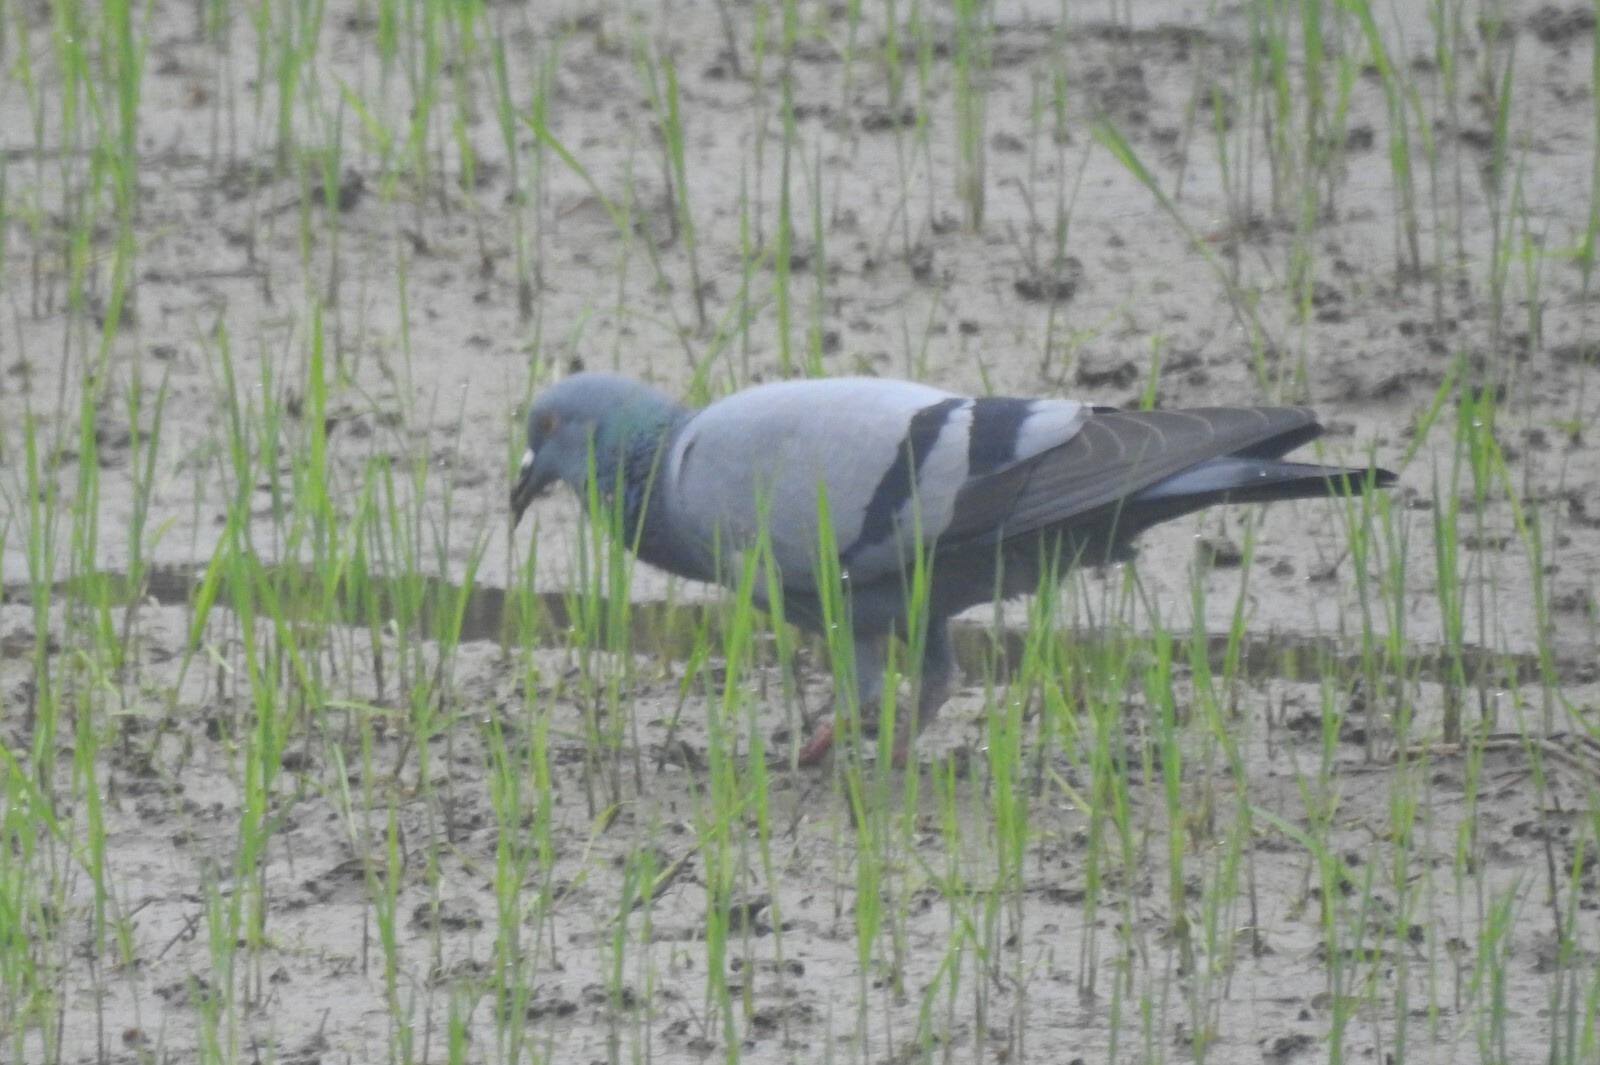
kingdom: Animalia
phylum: Chordata
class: Aves
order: Columbiformes
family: Columbidae
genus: Columba
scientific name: Columba livia
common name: Rock pigeon
